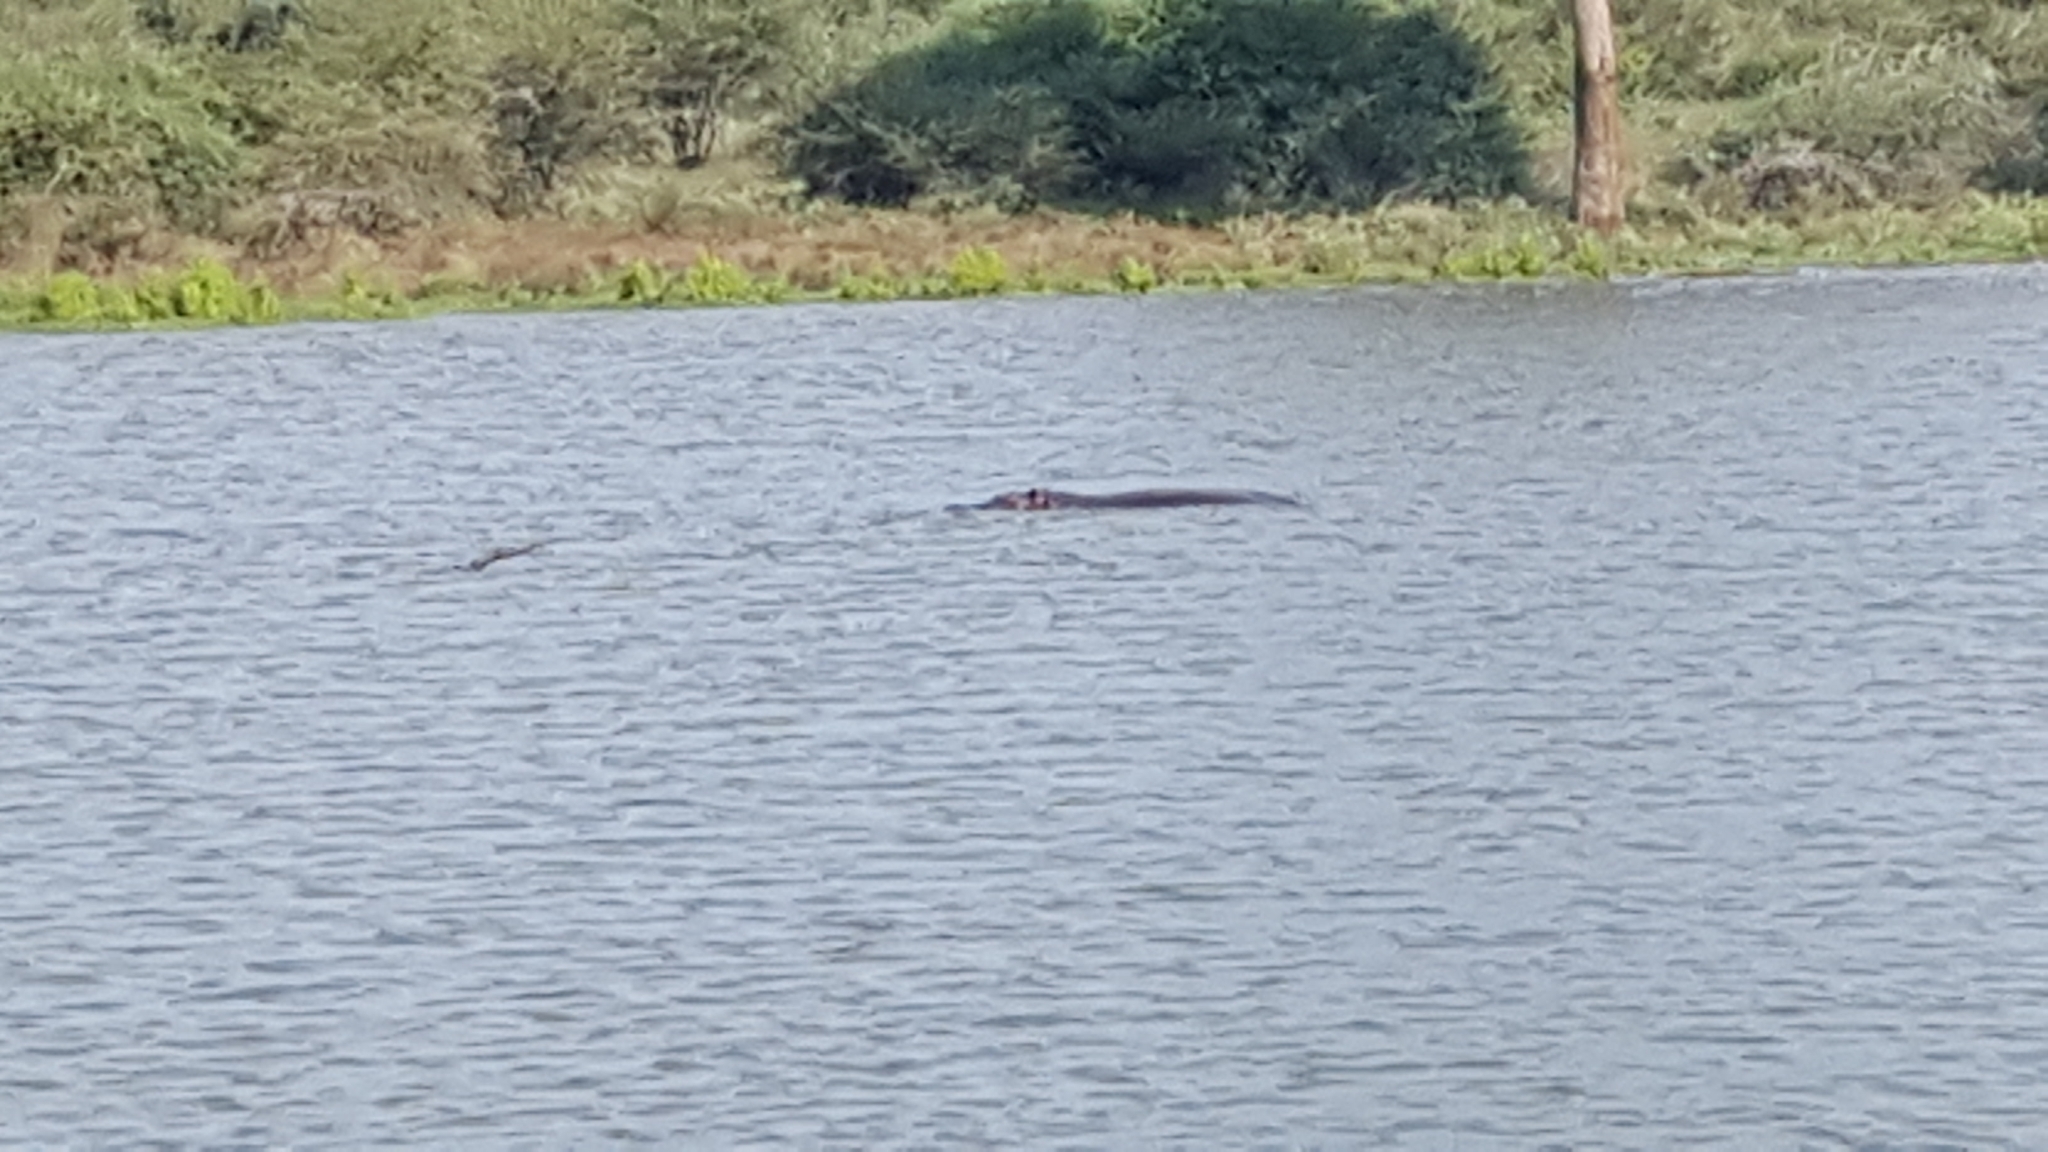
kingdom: Animalia
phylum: Chordata
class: Mammalia
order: Artiodactyla
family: Hippopotamidae
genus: Hippopotamus
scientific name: Hippopotamus amphibius
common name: Common hippopotamus
